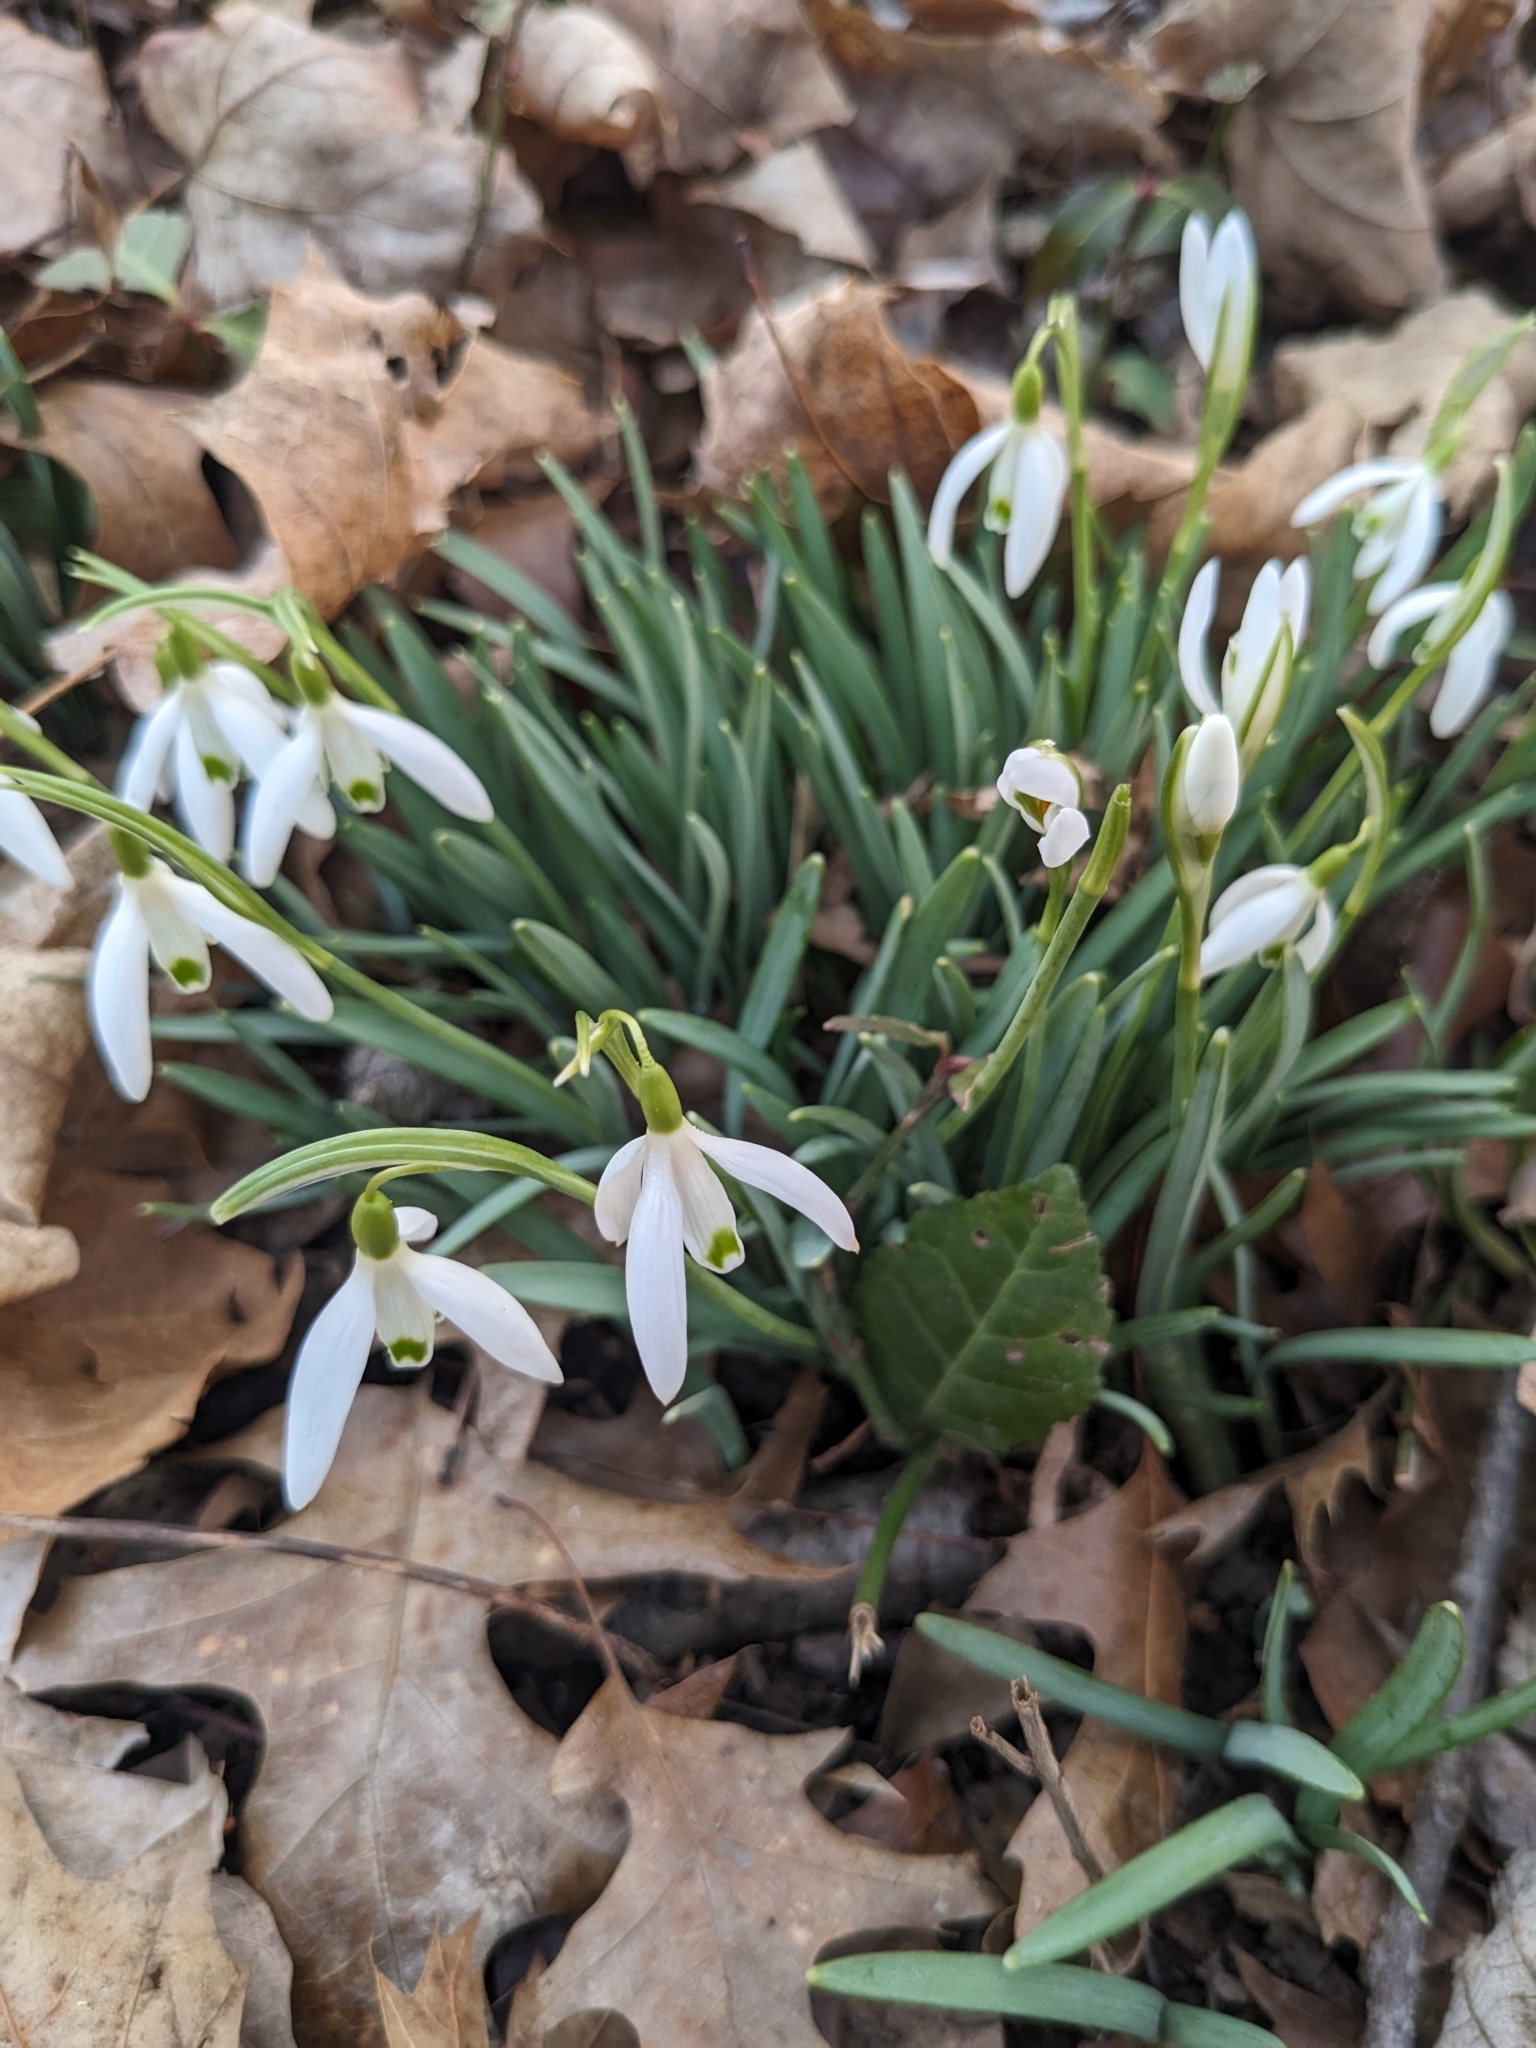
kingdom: Plantae
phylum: Tracheophyta
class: Liliopsida
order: Asparagales
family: Amaryllidaceae
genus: Galanthus
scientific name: Galanthus nivalis
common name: Snowdrop
